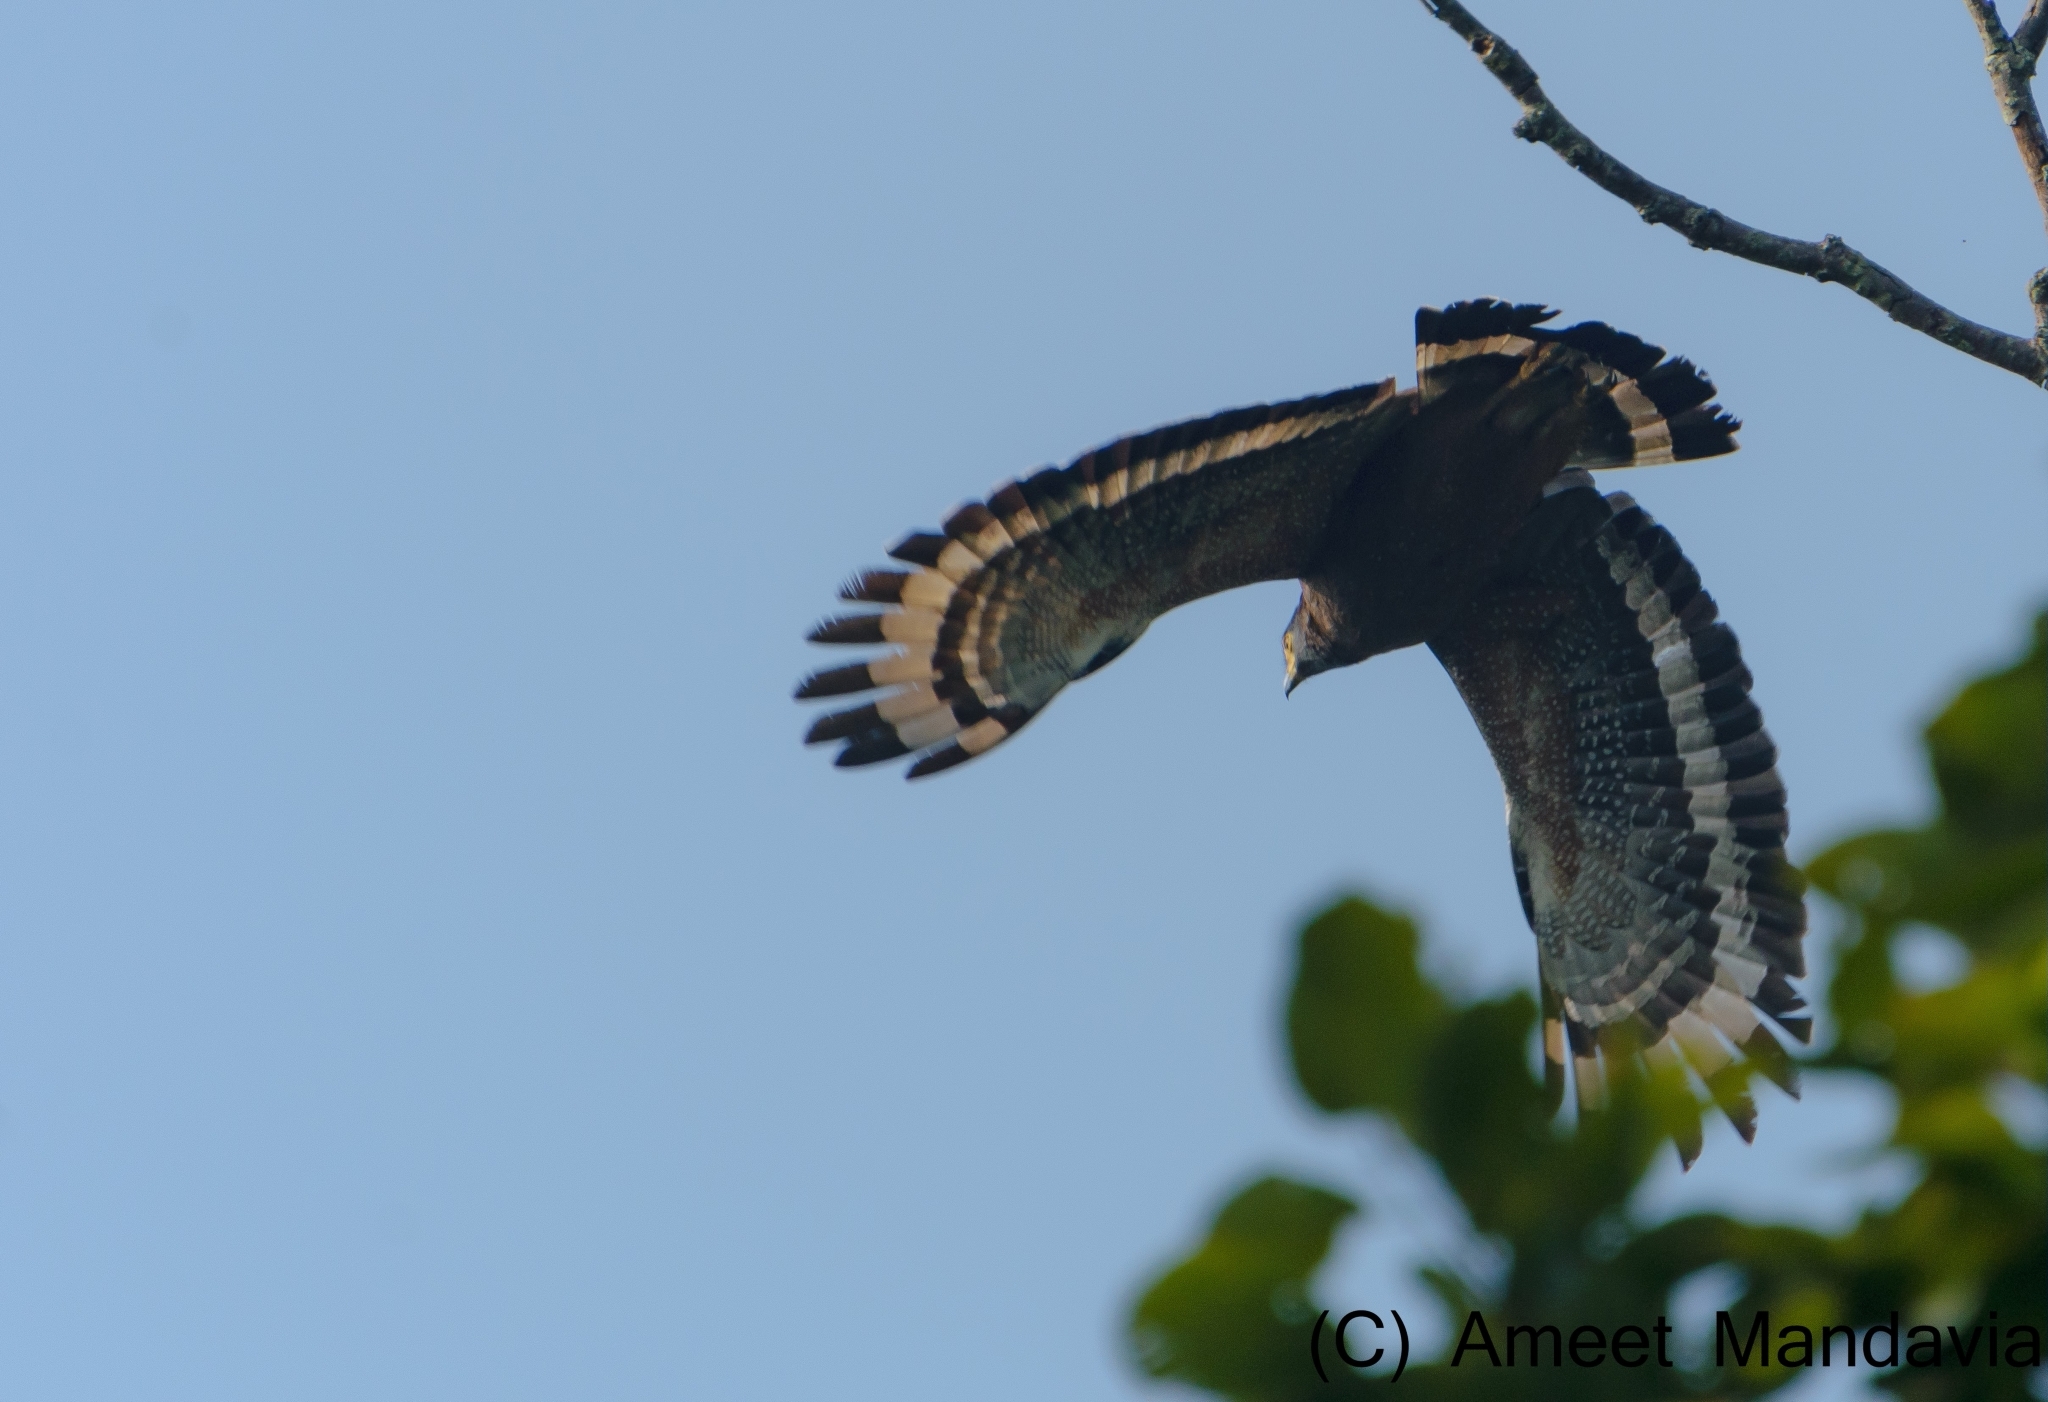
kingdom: Animalia
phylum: Chordata
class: Aves
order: Accipitriformes
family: Accipitridae
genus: Spilornis
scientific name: Spilornis cheela
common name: Crested serpent eagle
